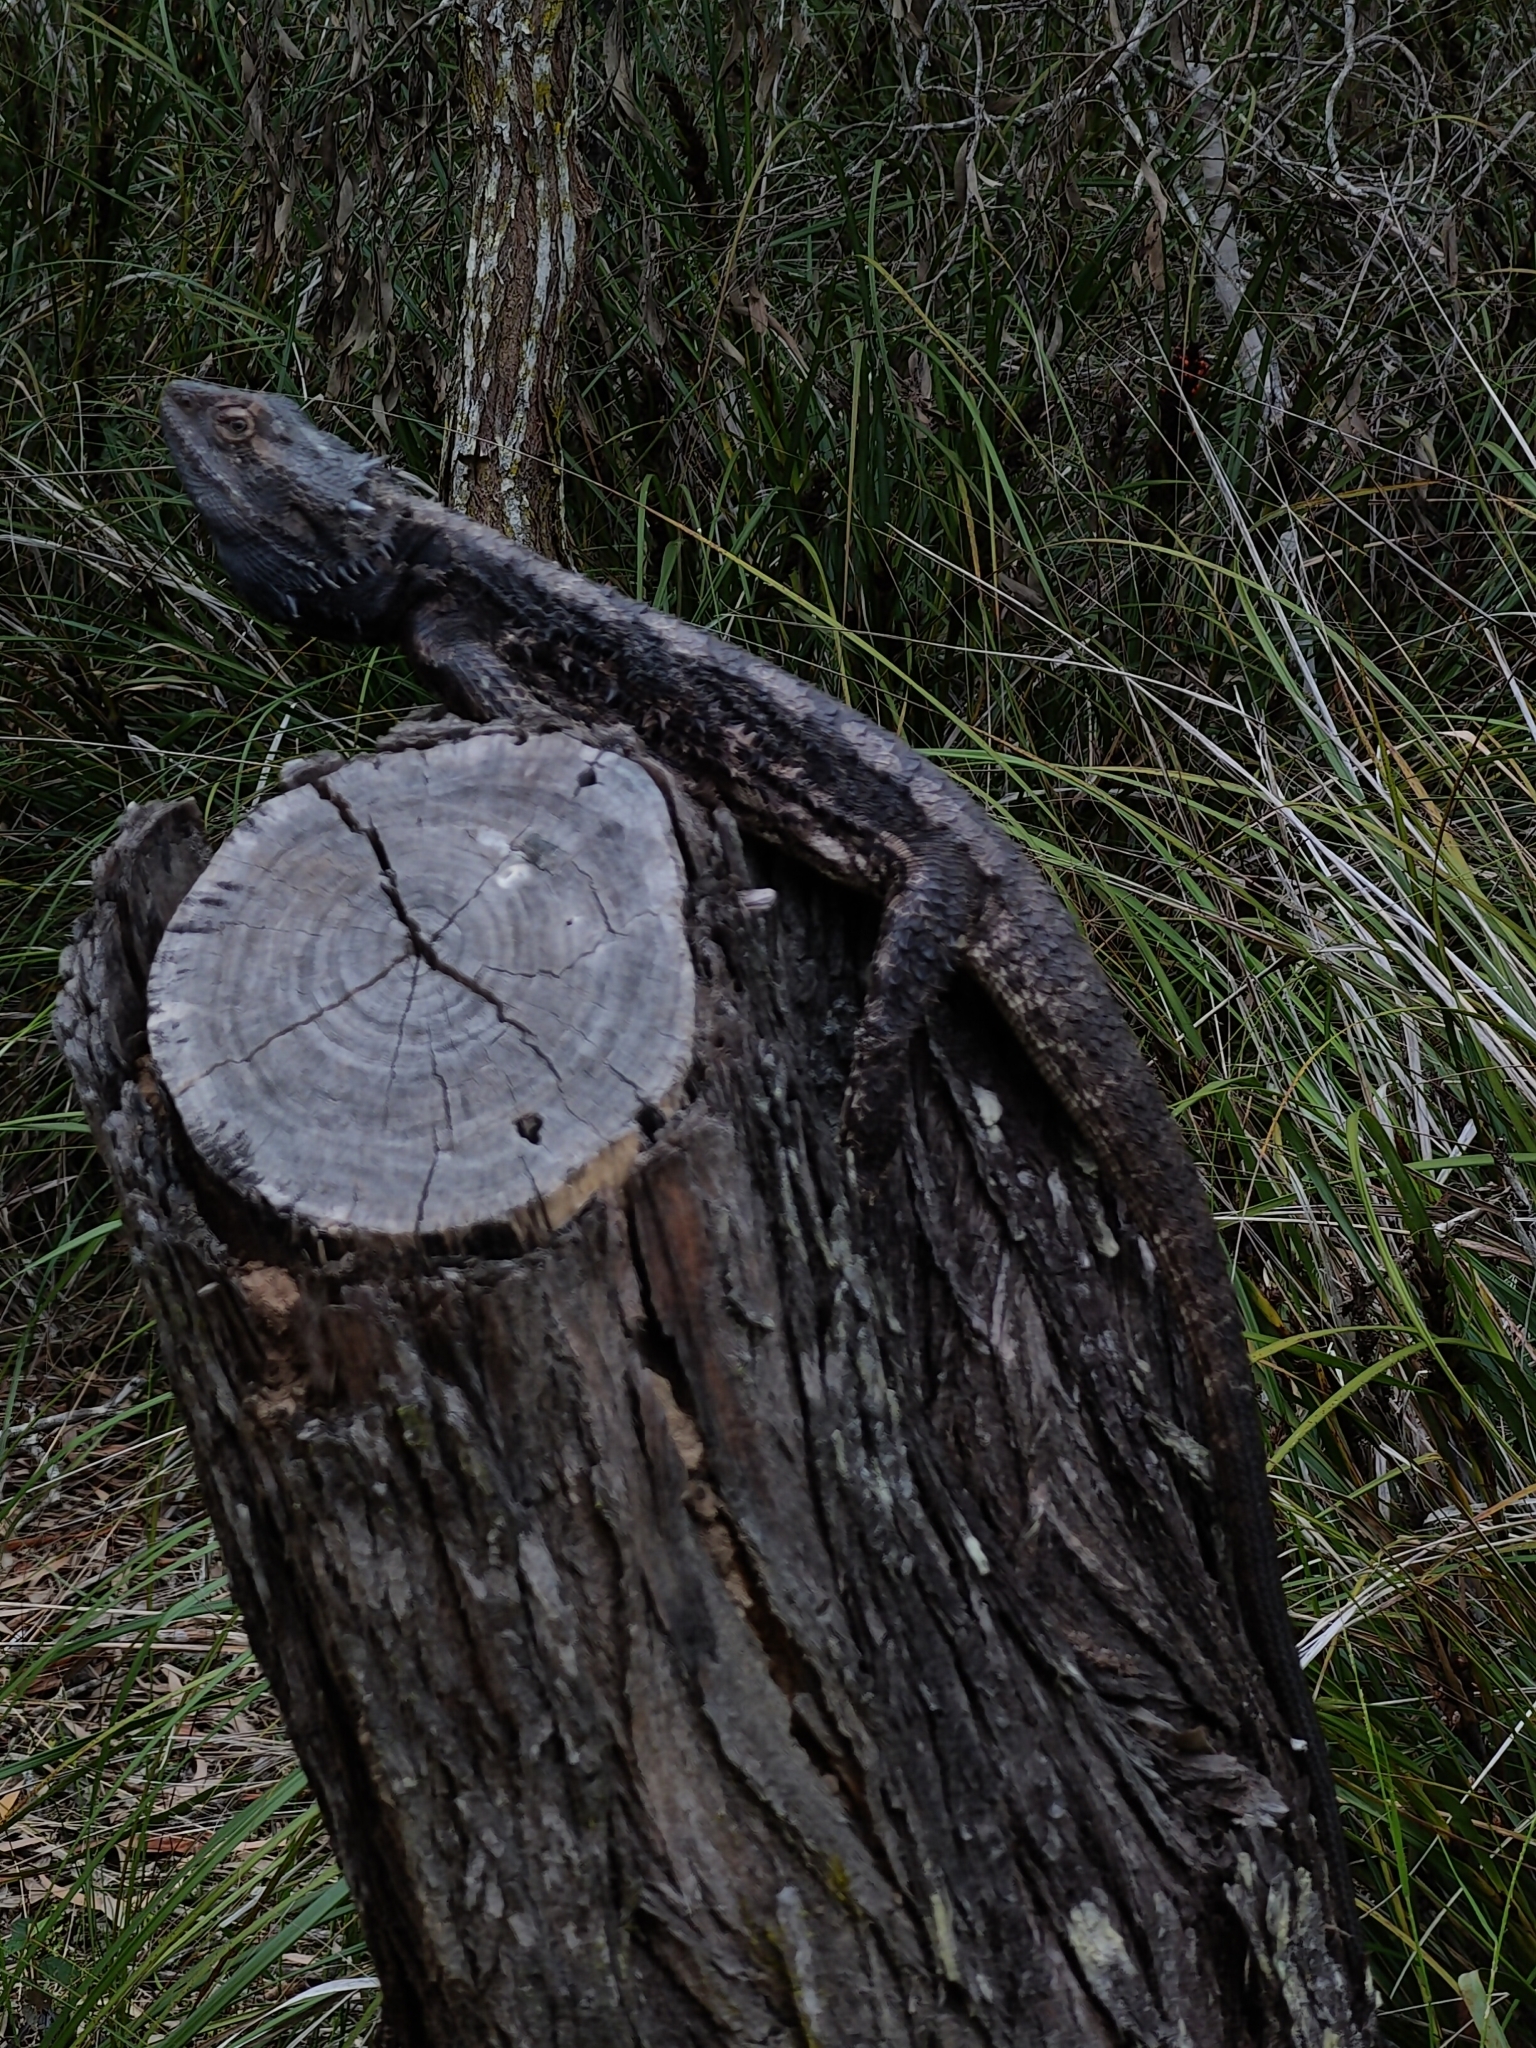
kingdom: Animalia
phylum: Chordata
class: Squamata
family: Agamidae
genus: Pogona
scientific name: Pogona barbata
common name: Bearded dragon
